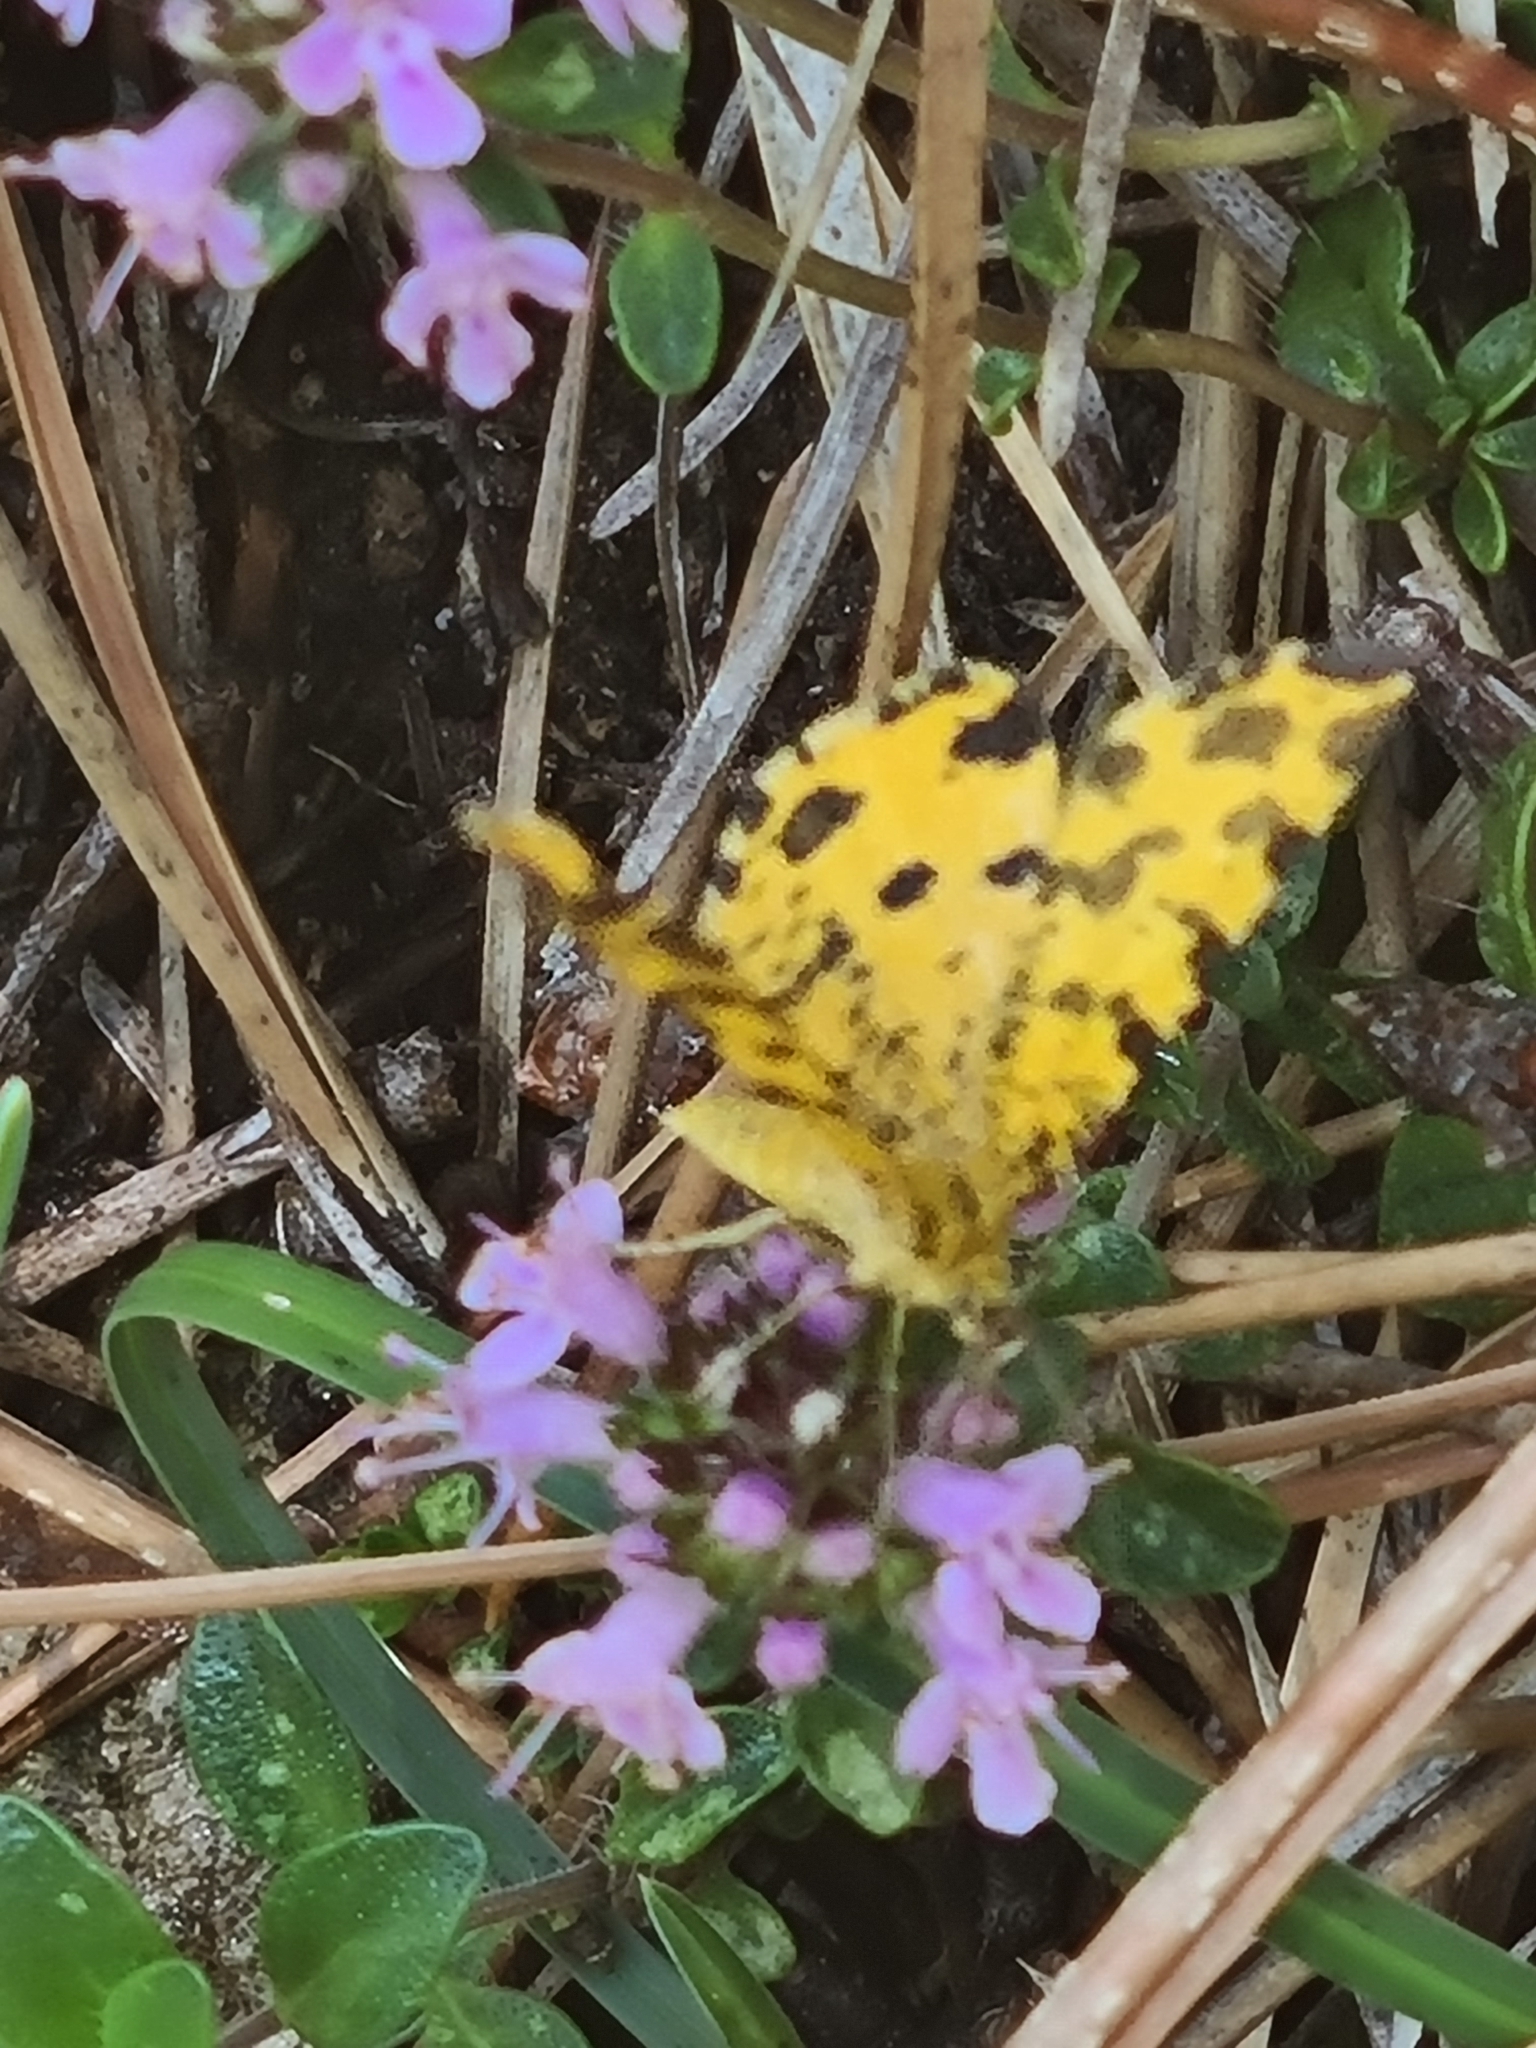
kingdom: Animalia
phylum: Arthropoda
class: Insecta
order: Lepidoptera
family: Geometridae
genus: Pseudopanthera
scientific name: Pseudopanthera macularia
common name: Speckled yellow
